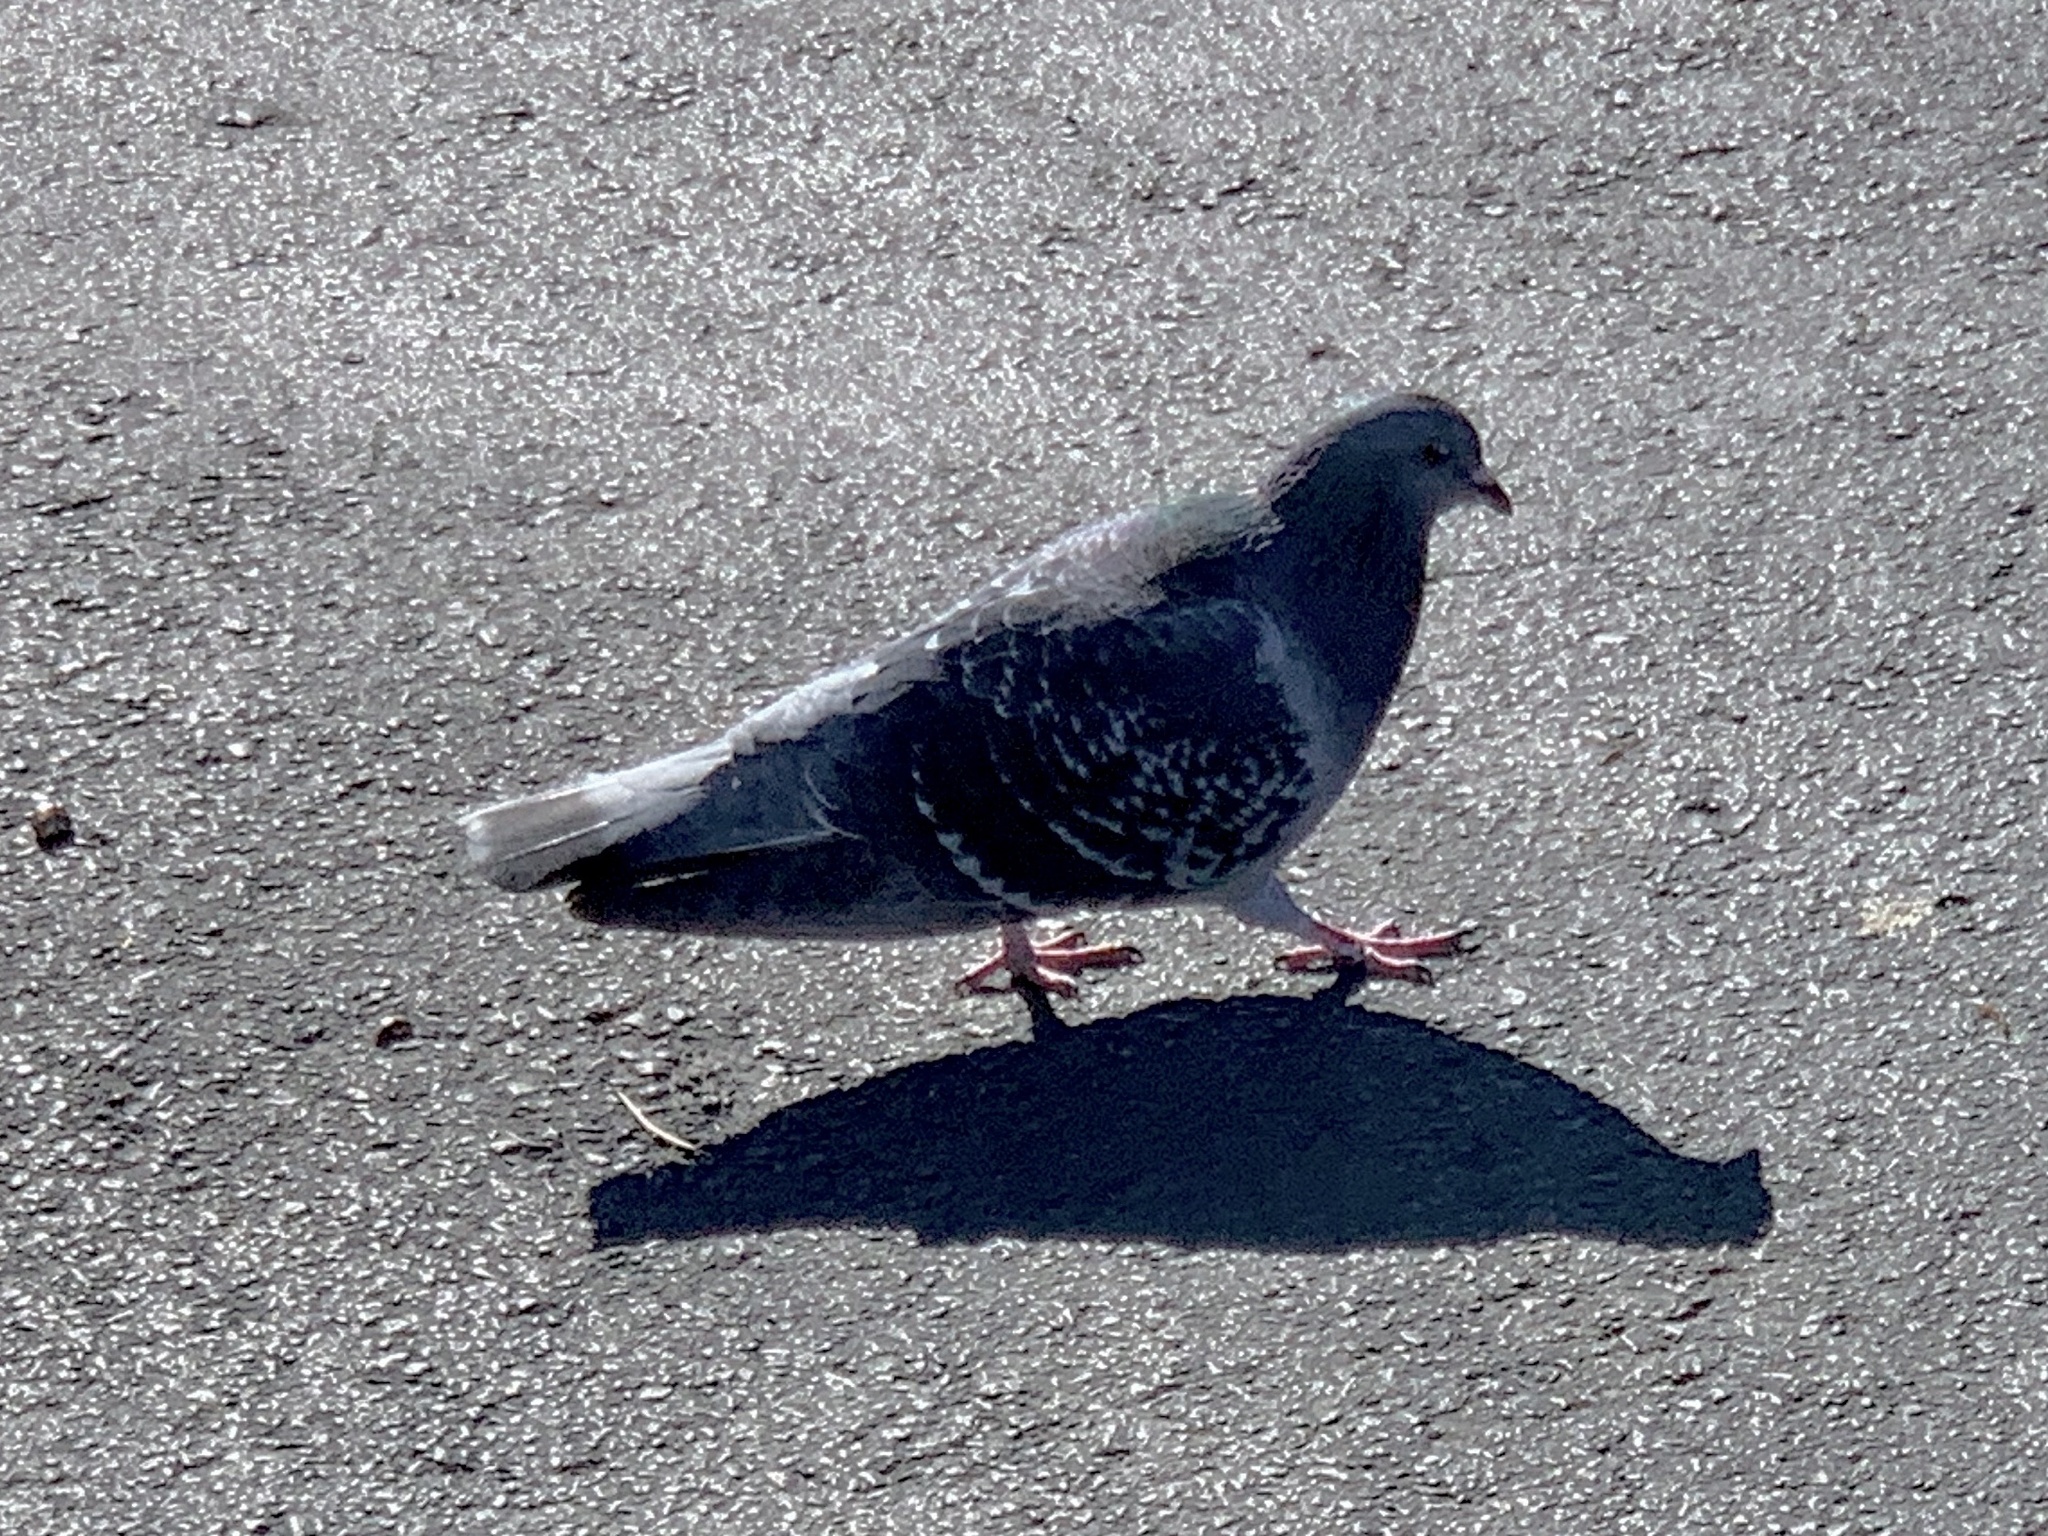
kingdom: Animalia
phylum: Chordata
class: Aves
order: Columbiformes
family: Columbidae
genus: Columba
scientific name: Columba livia
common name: Rock pigeon
